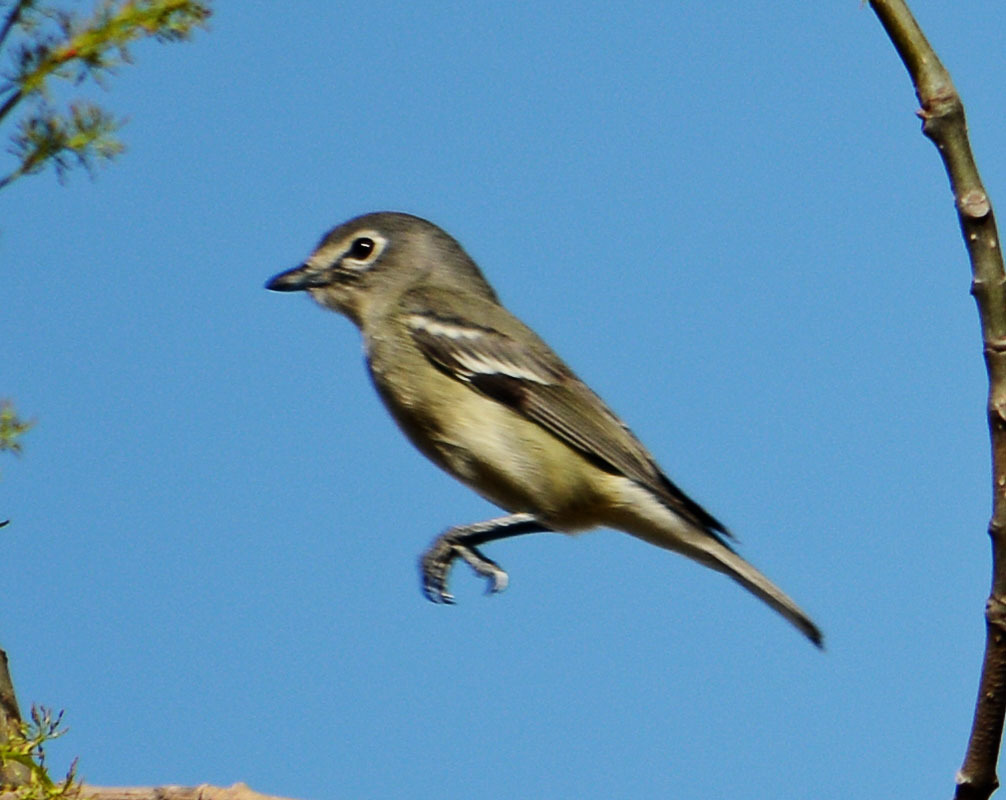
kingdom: Animalia
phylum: Chordata
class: Aves
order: Passeriformes
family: Vireonidae
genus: Vireo
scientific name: Vireo solitarius
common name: Blue-headed vireo
